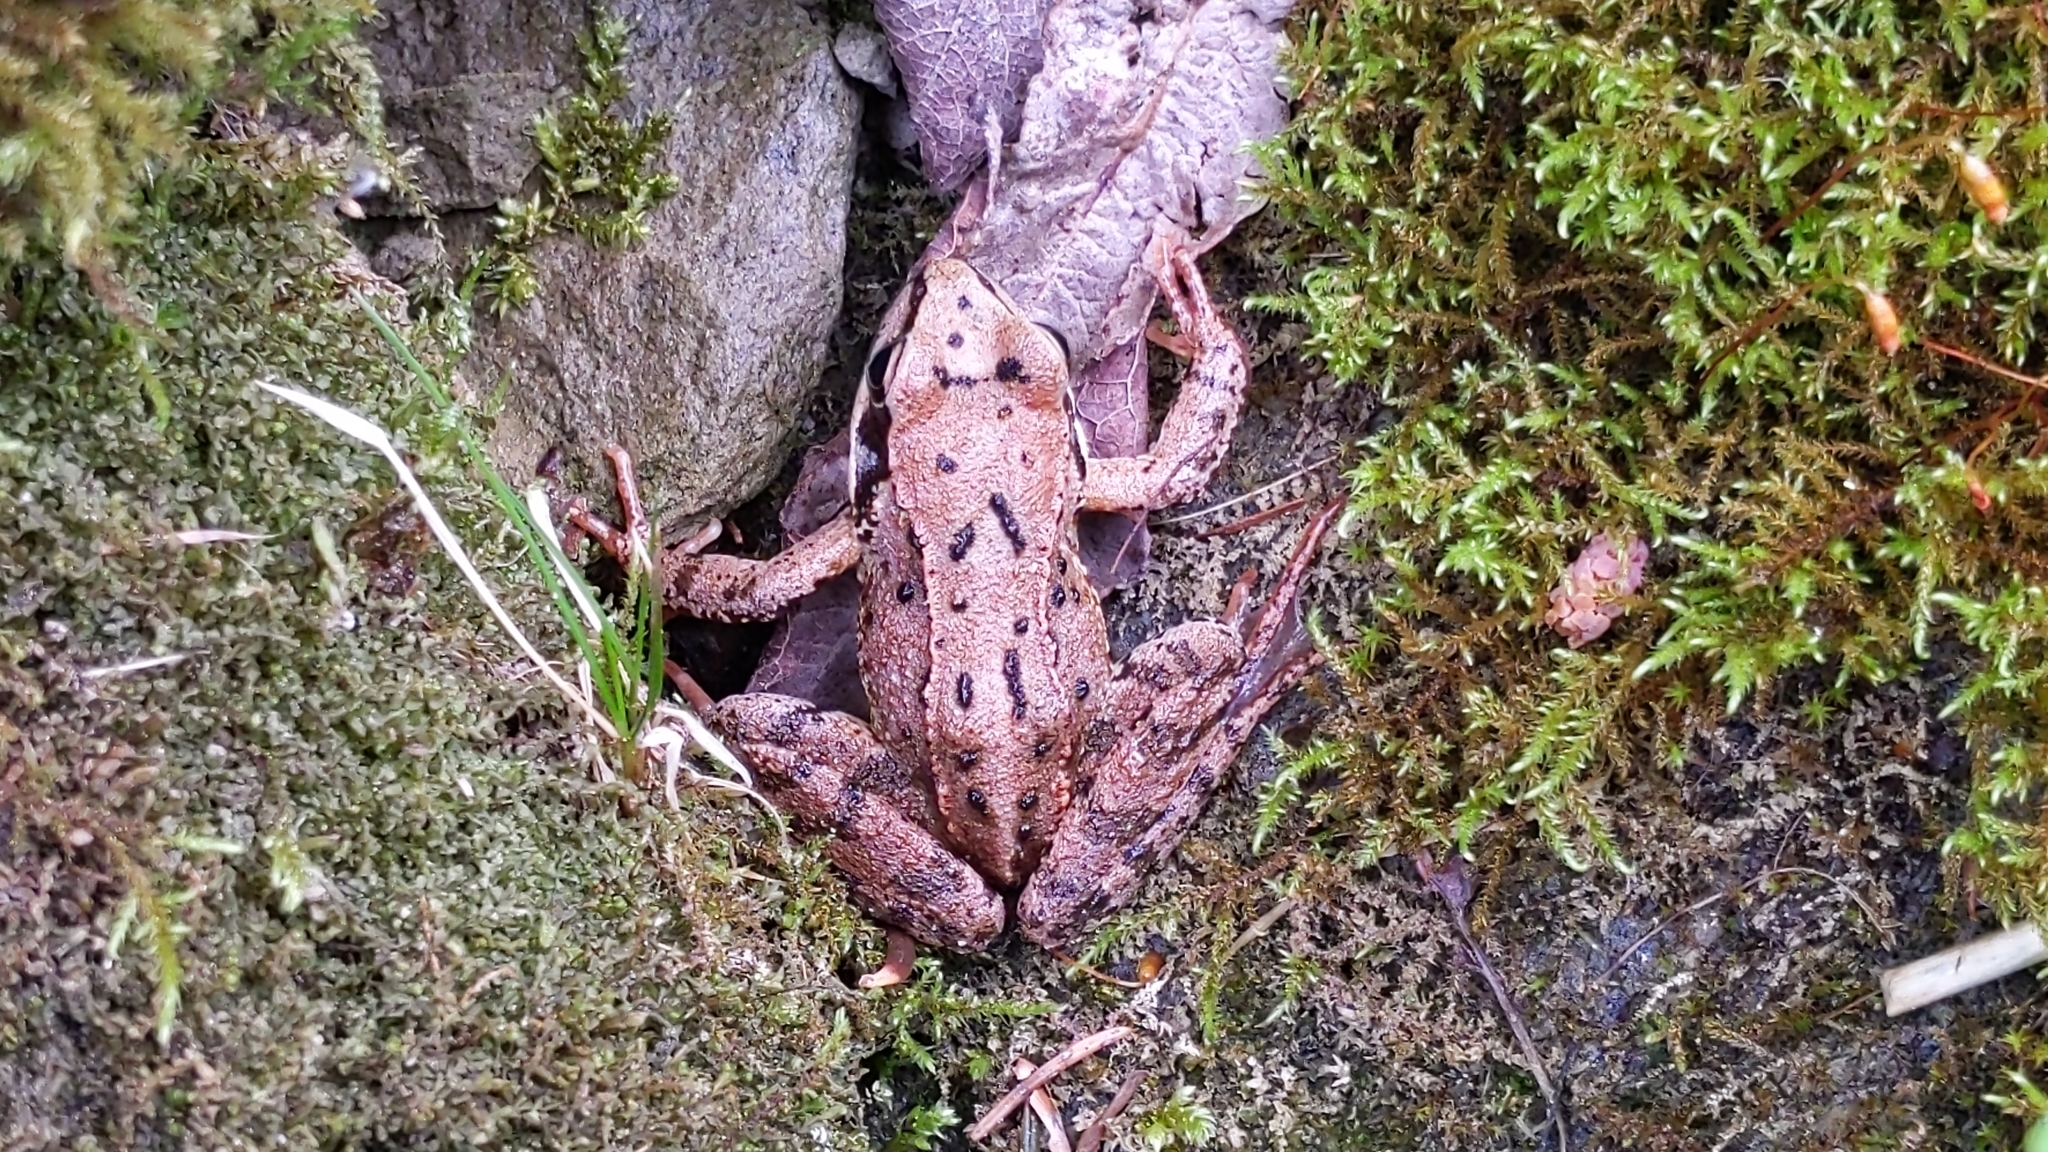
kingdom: Animalia
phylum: Chordata
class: Amphibia
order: Anura
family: Ranidae
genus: Rana
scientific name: Rana temporaria
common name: Common frog
